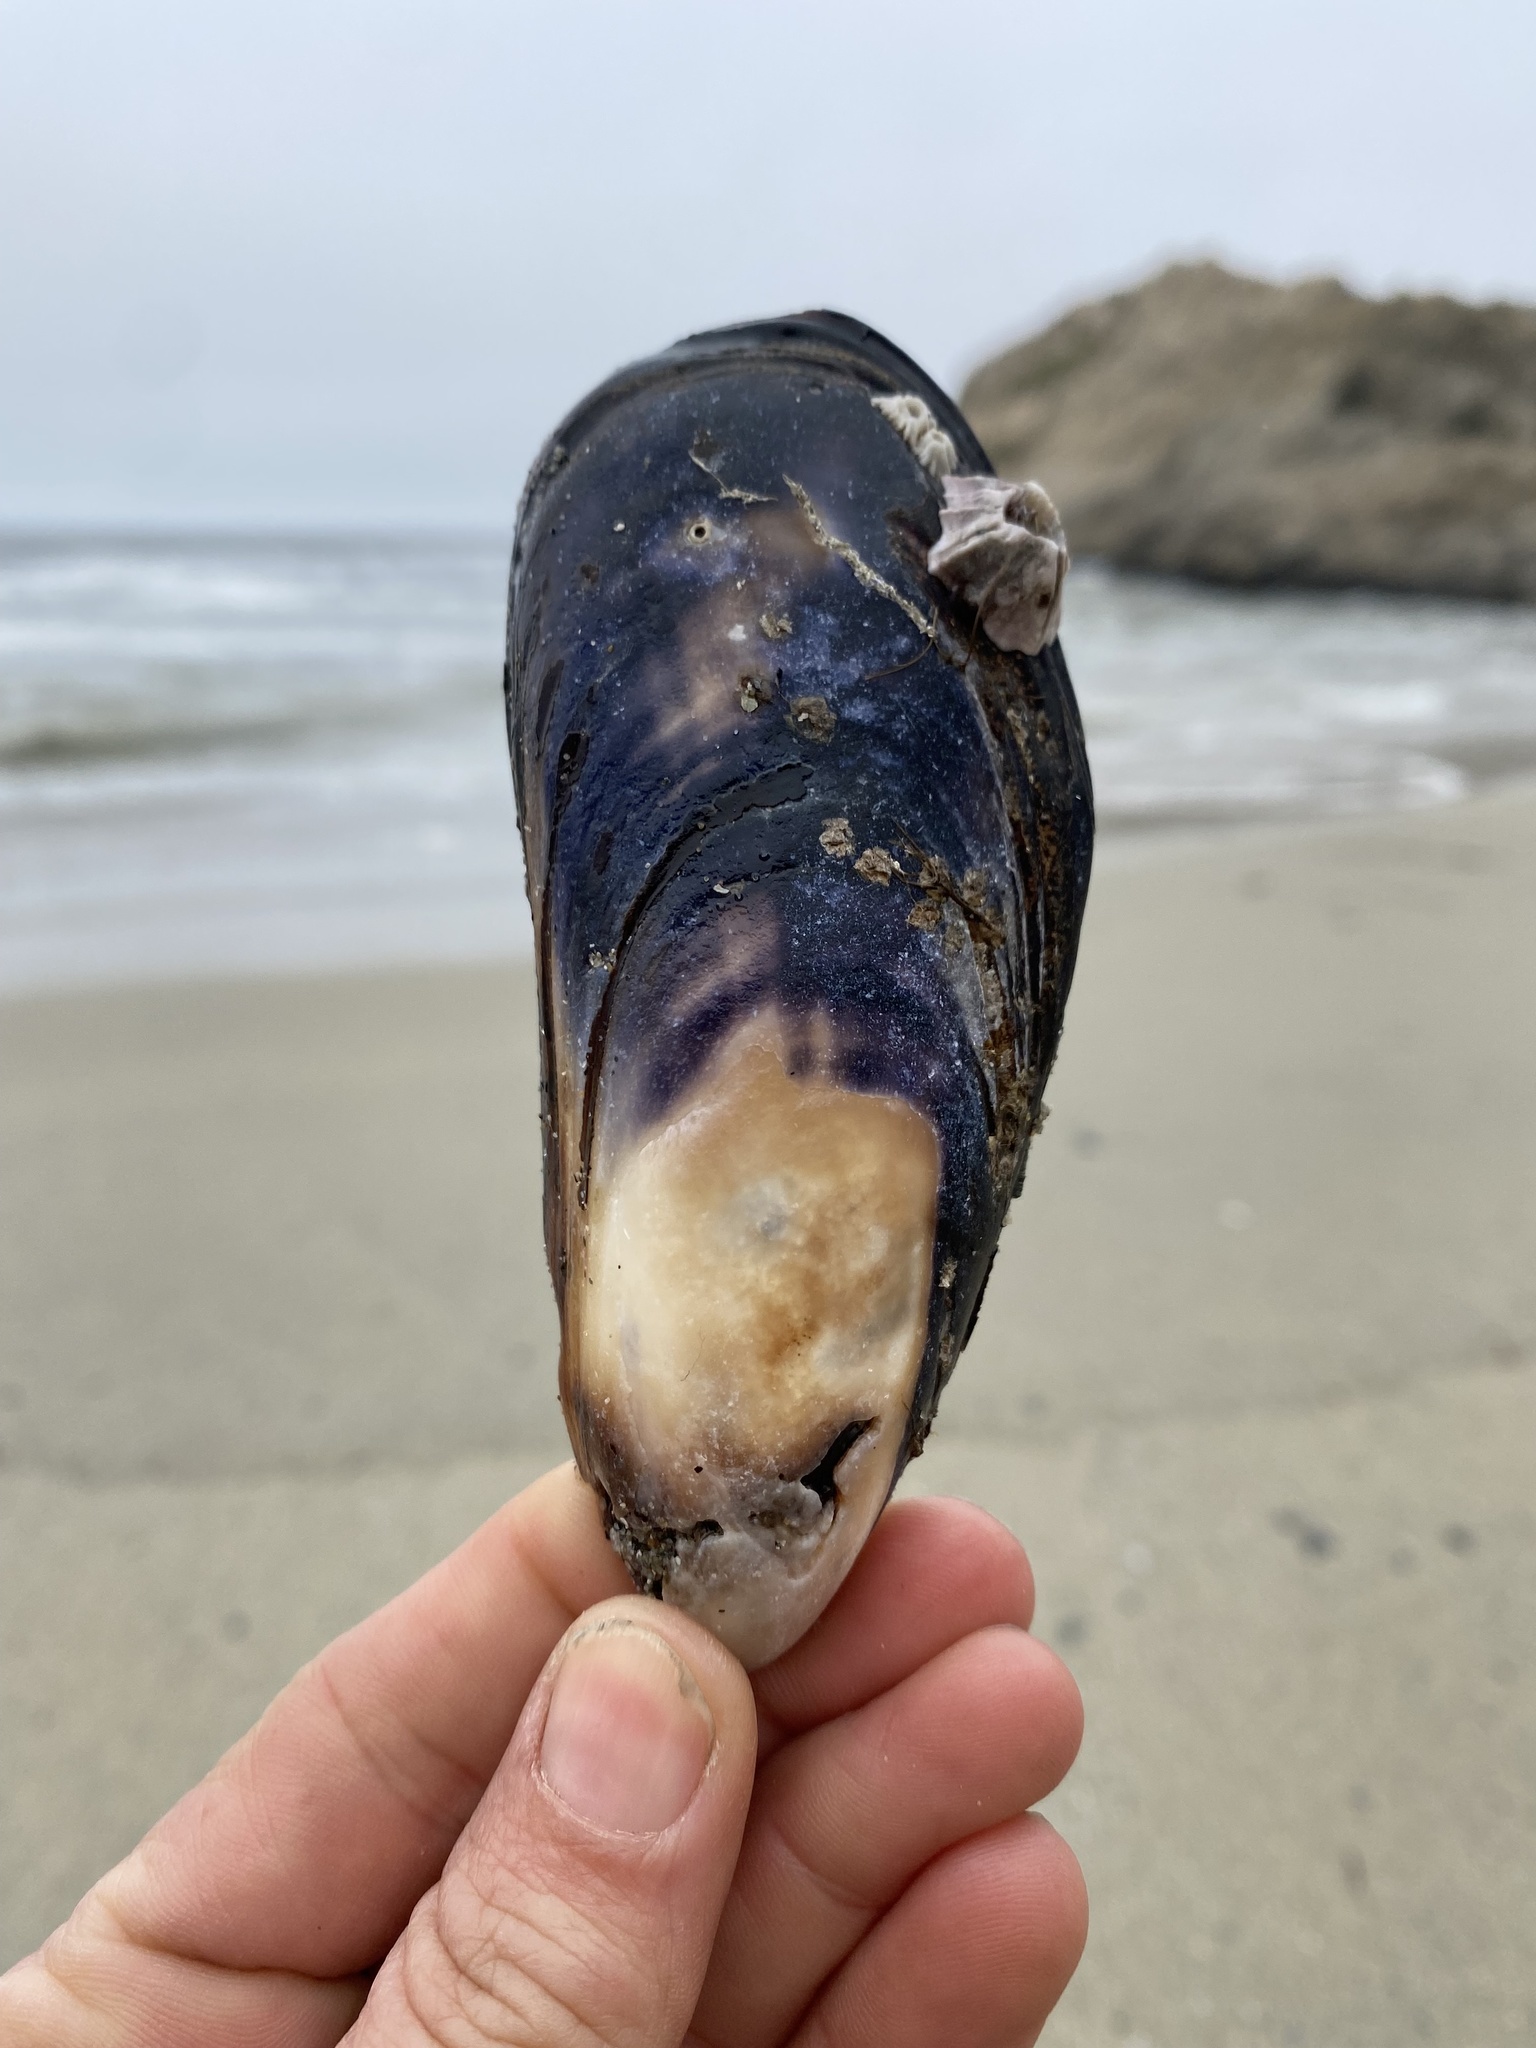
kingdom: Animalia
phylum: Mollusca
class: Bivalvia
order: Mytilida
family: Mytilidae
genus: Mytilus
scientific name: Mytilus californianus
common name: California mussel
